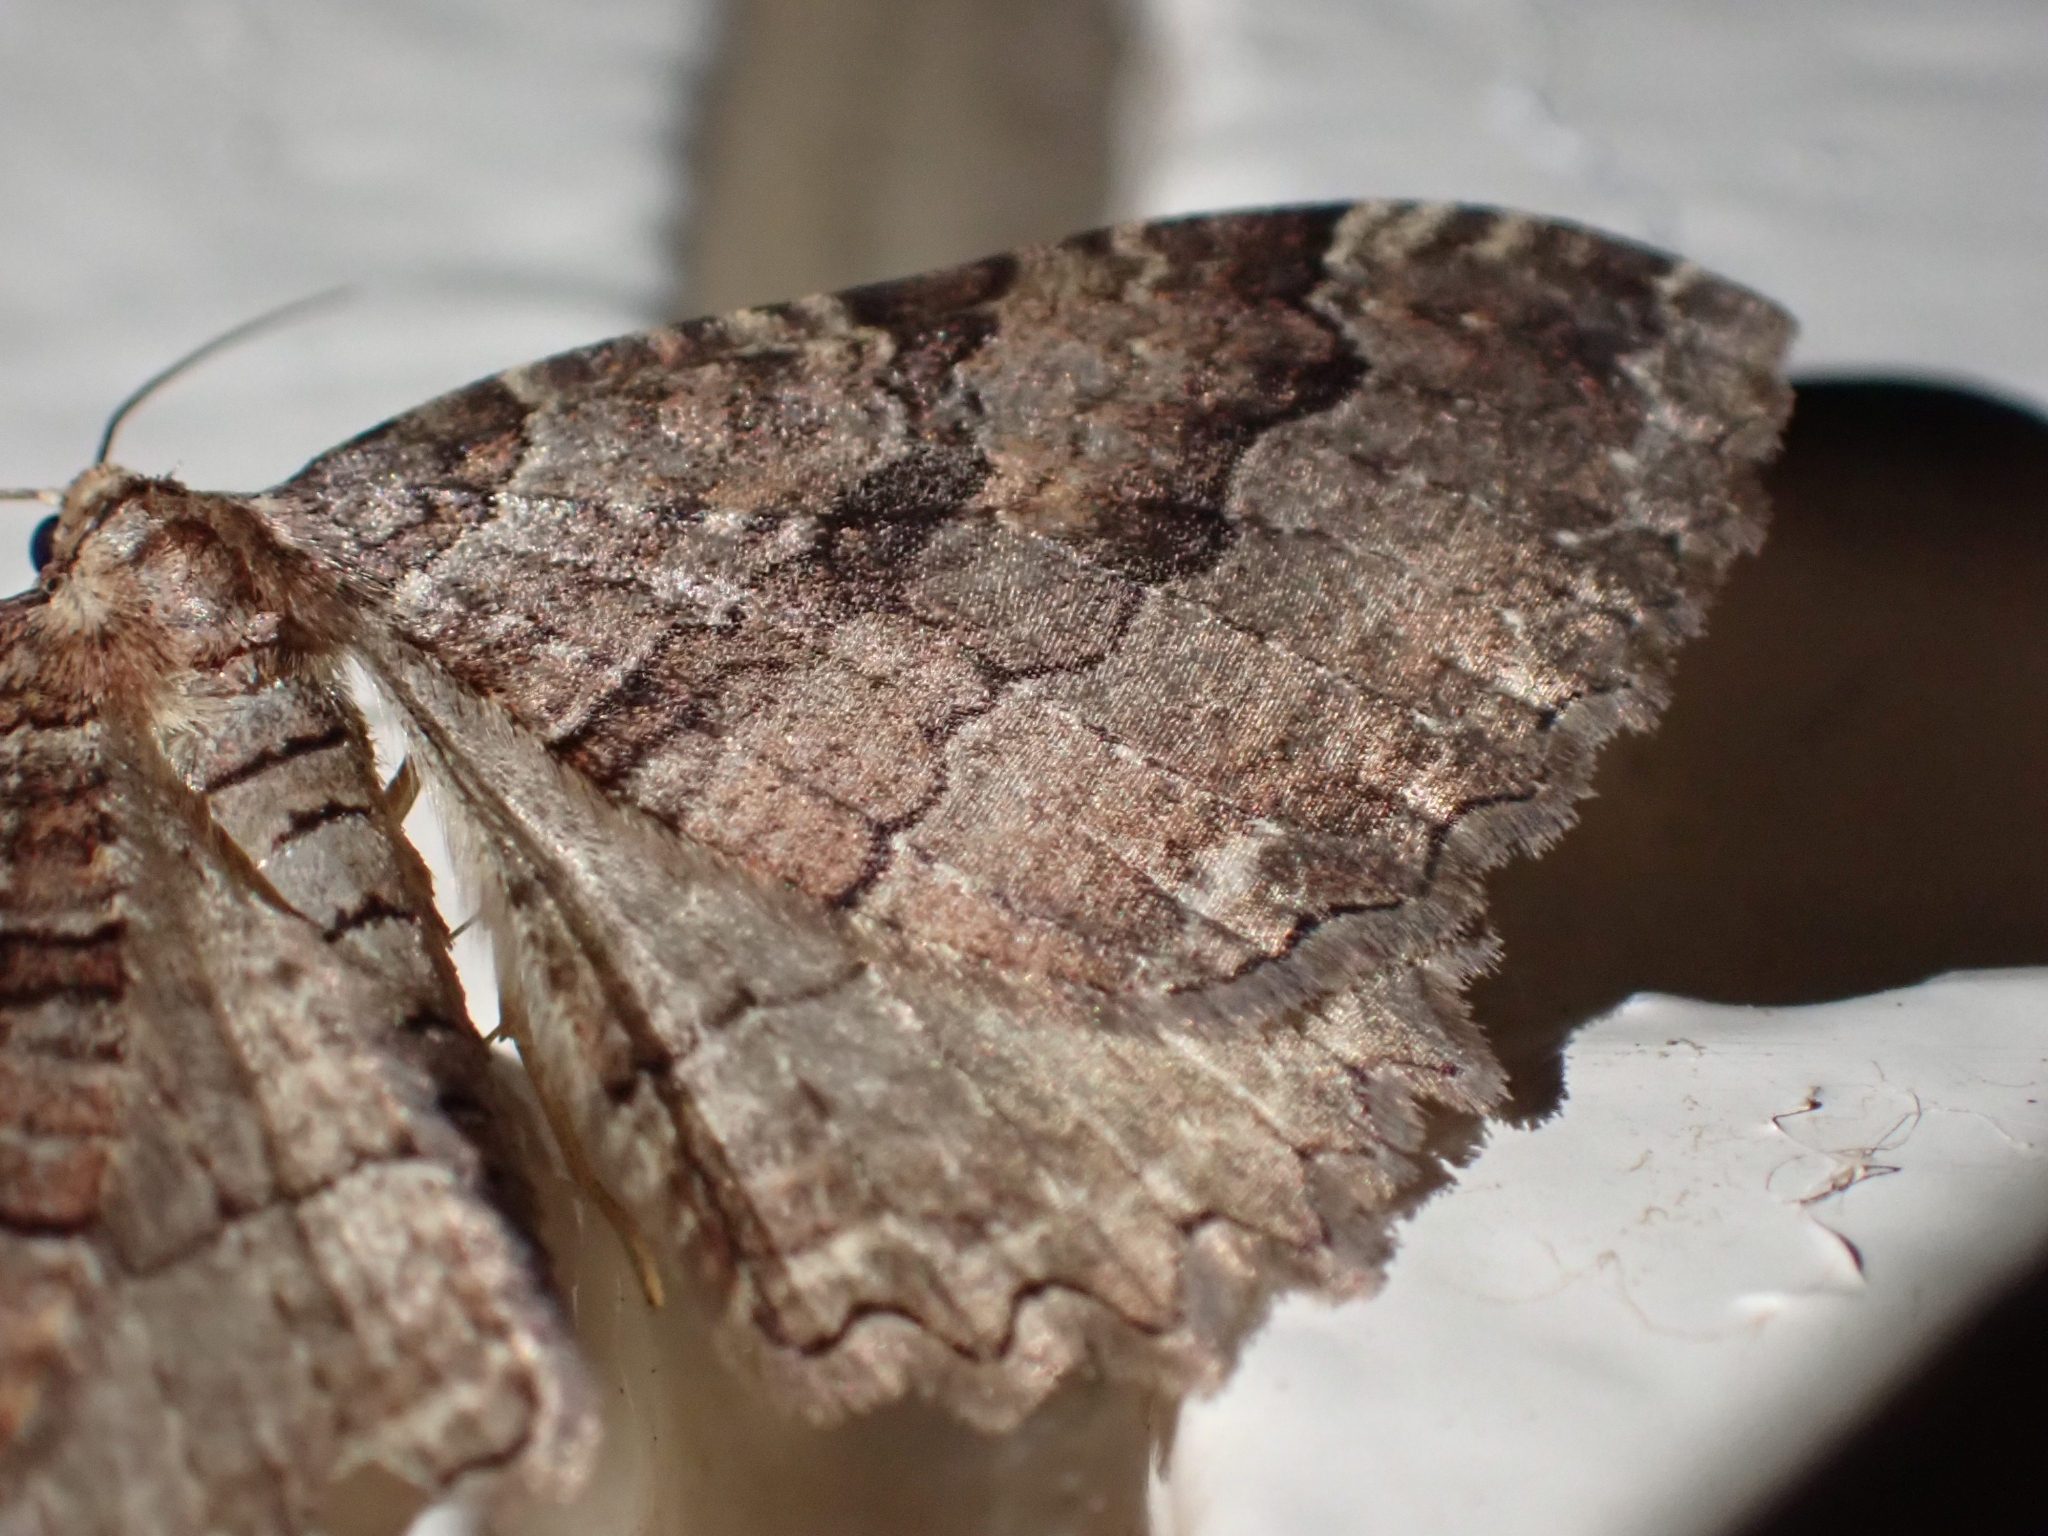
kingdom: Animalia
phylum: Arthropoda
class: Insecta
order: Lepidoptera
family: Geometridae
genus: Triphosa
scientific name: Triphosa haesitata
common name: Tissue moth
